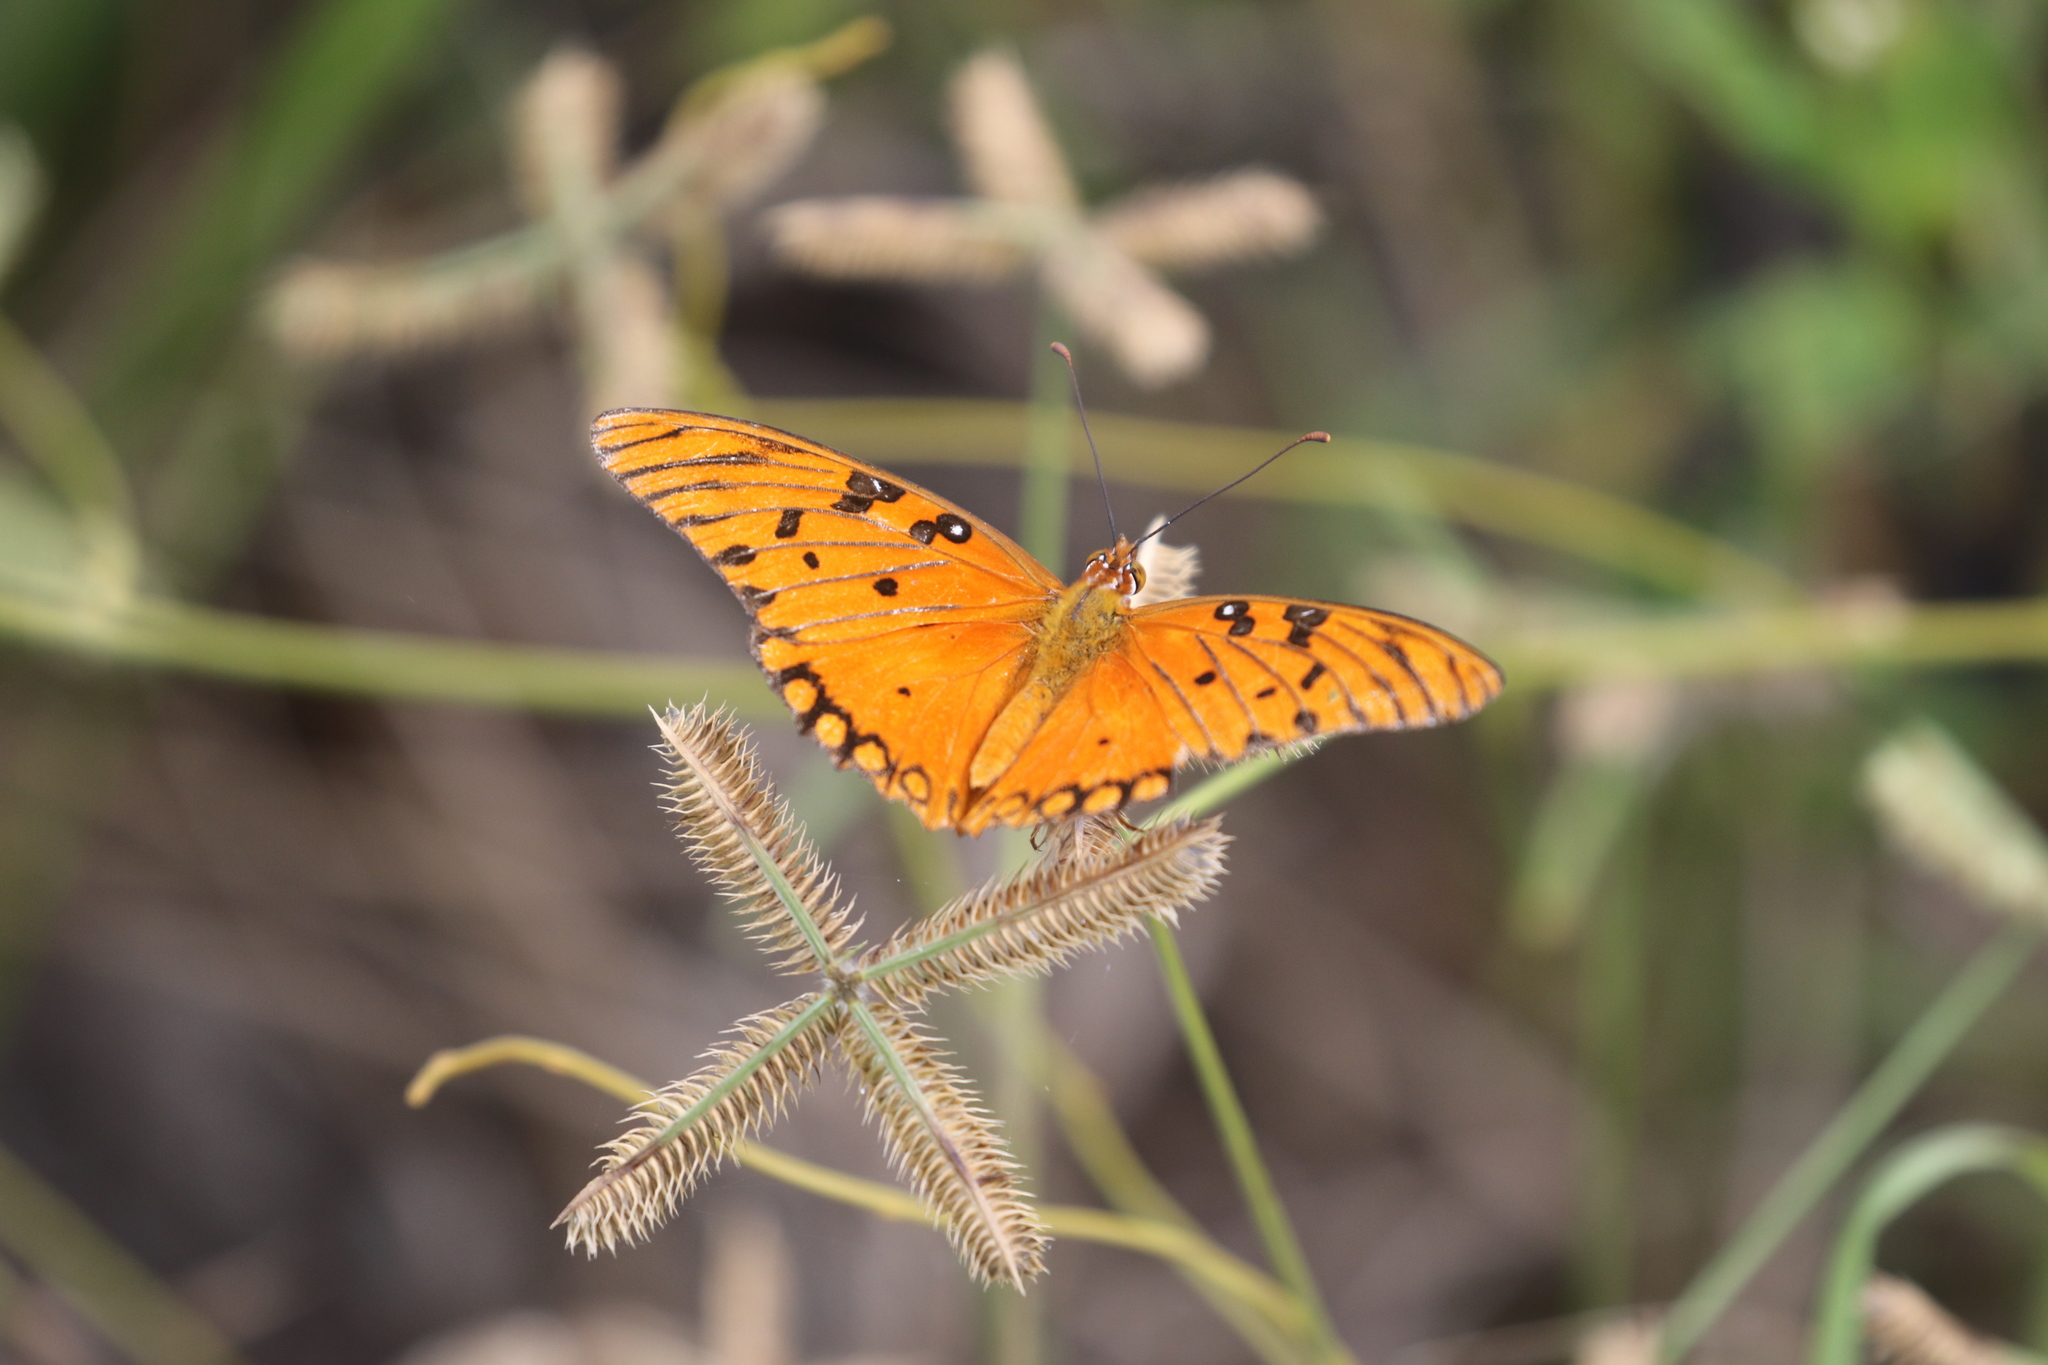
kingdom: Animalia
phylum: Arthropoda
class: Insecta
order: Lepidoptera
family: Nymphalidae
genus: Dione
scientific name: Dione vanillae
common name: Gulf fritillary
